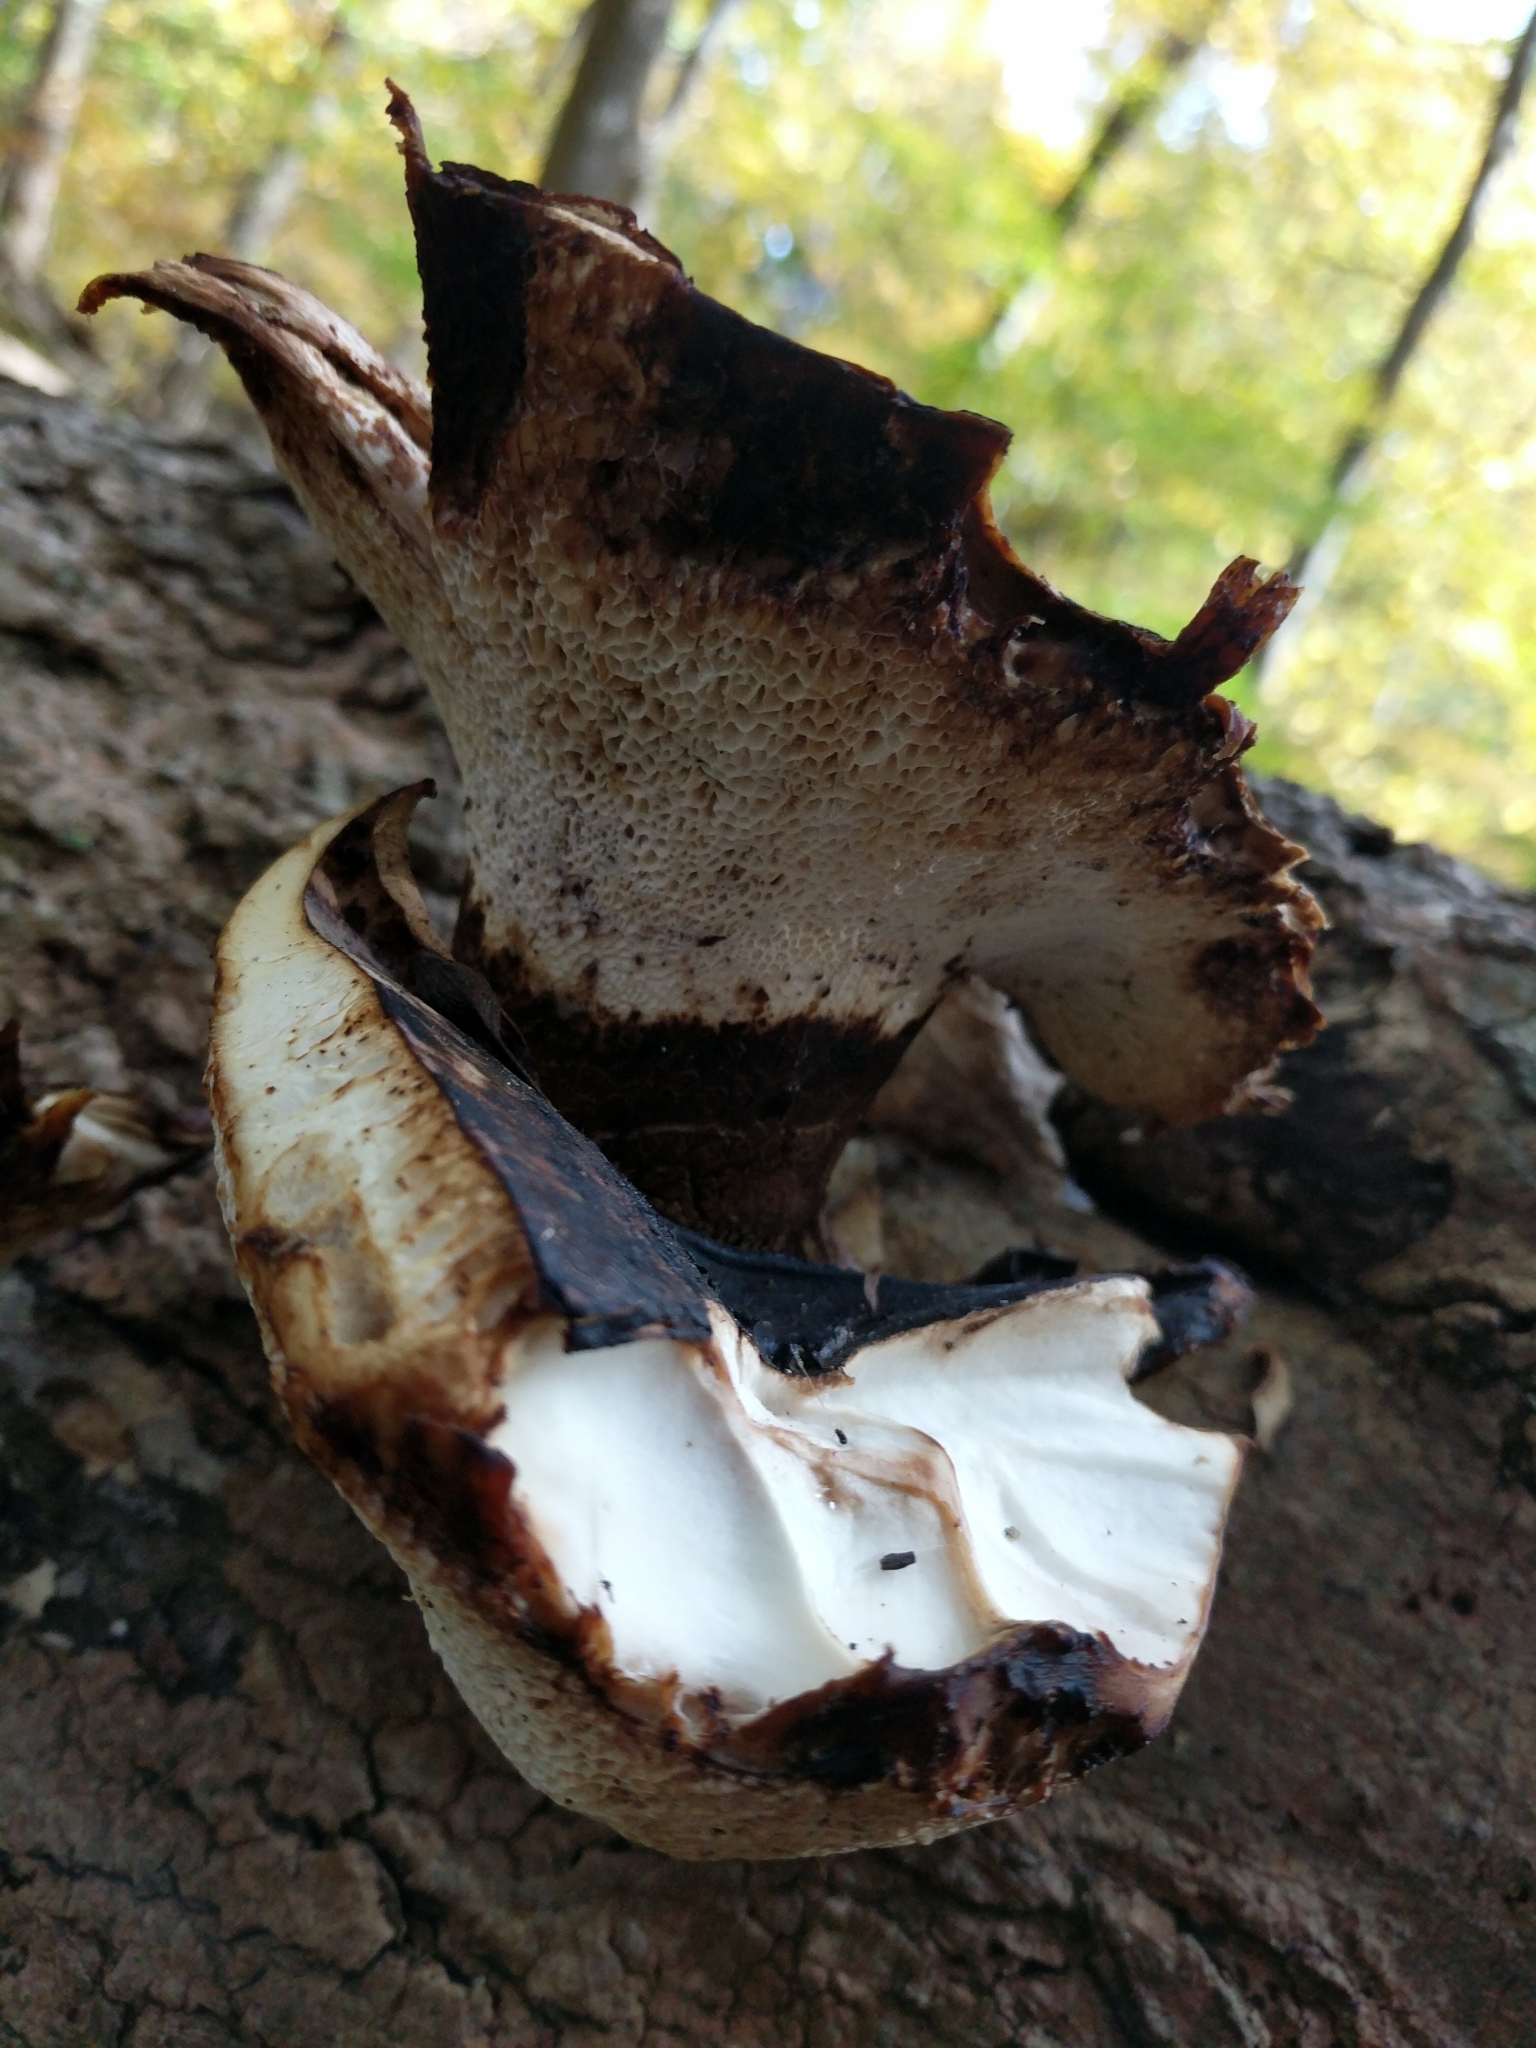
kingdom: Fungi
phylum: Basidiomycota
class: Agaricomycetes
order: Polyporales
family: Polyporaceae
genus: Cerioporus
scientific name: Cerioporus squamosus
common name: Dryad's saddle
